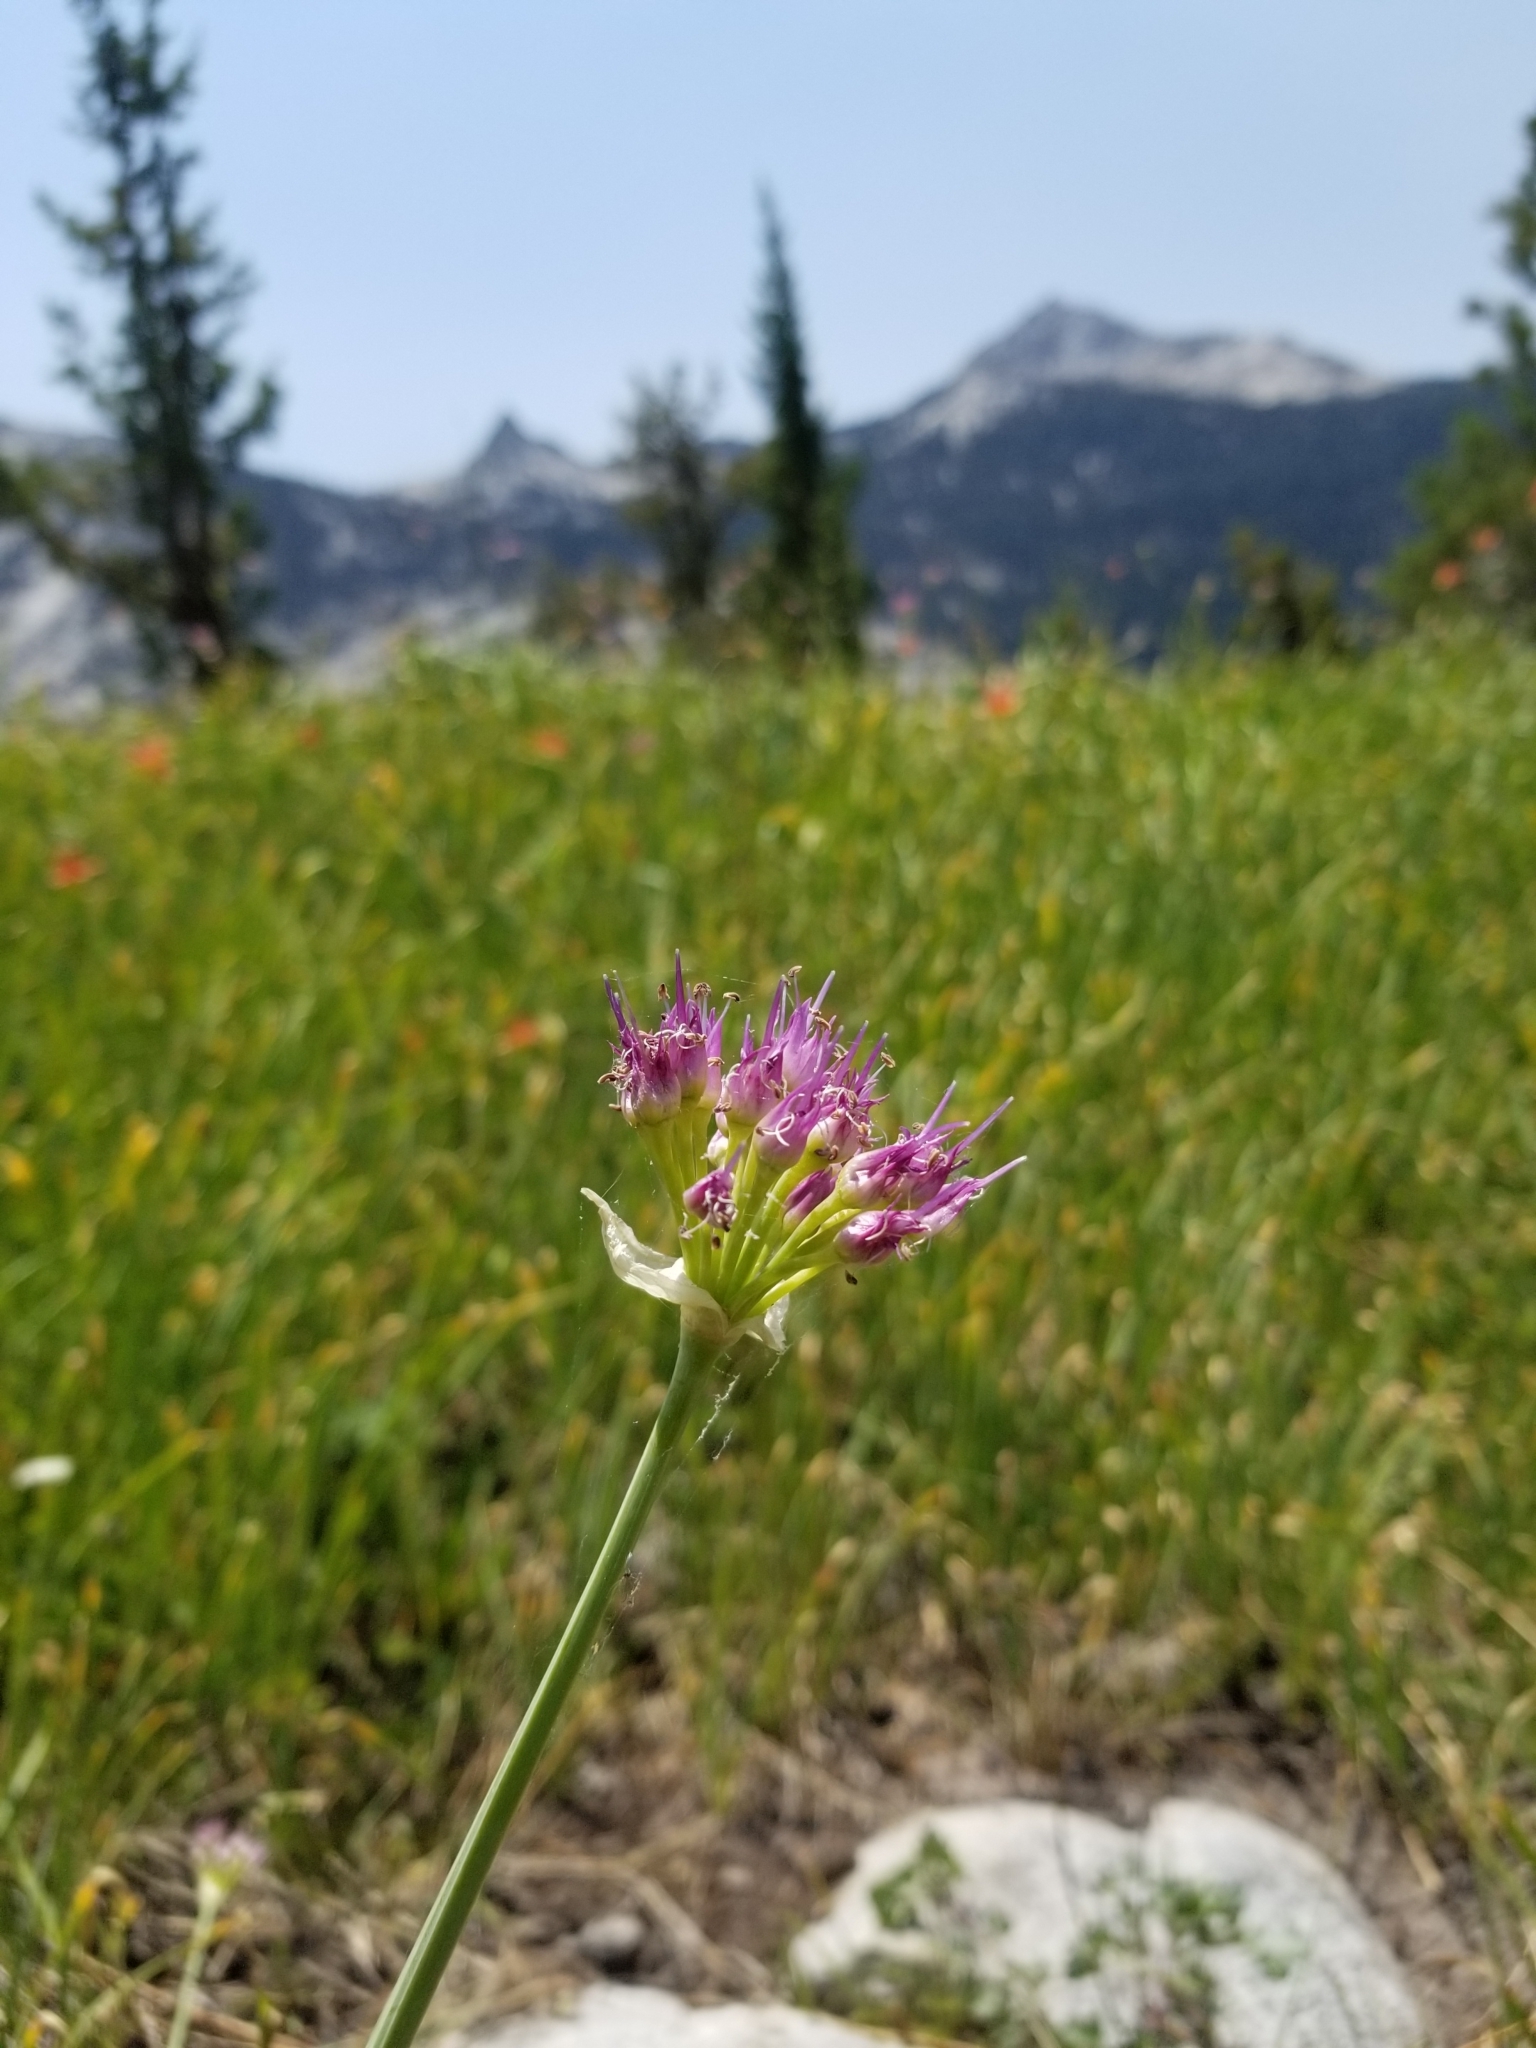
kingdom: Plantae
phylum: Tracheophyta
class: Liliopsida
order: Asparagales
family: Amaryllidaceae
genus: Allium
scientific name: Allium validum
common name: Pacific mountain onion
